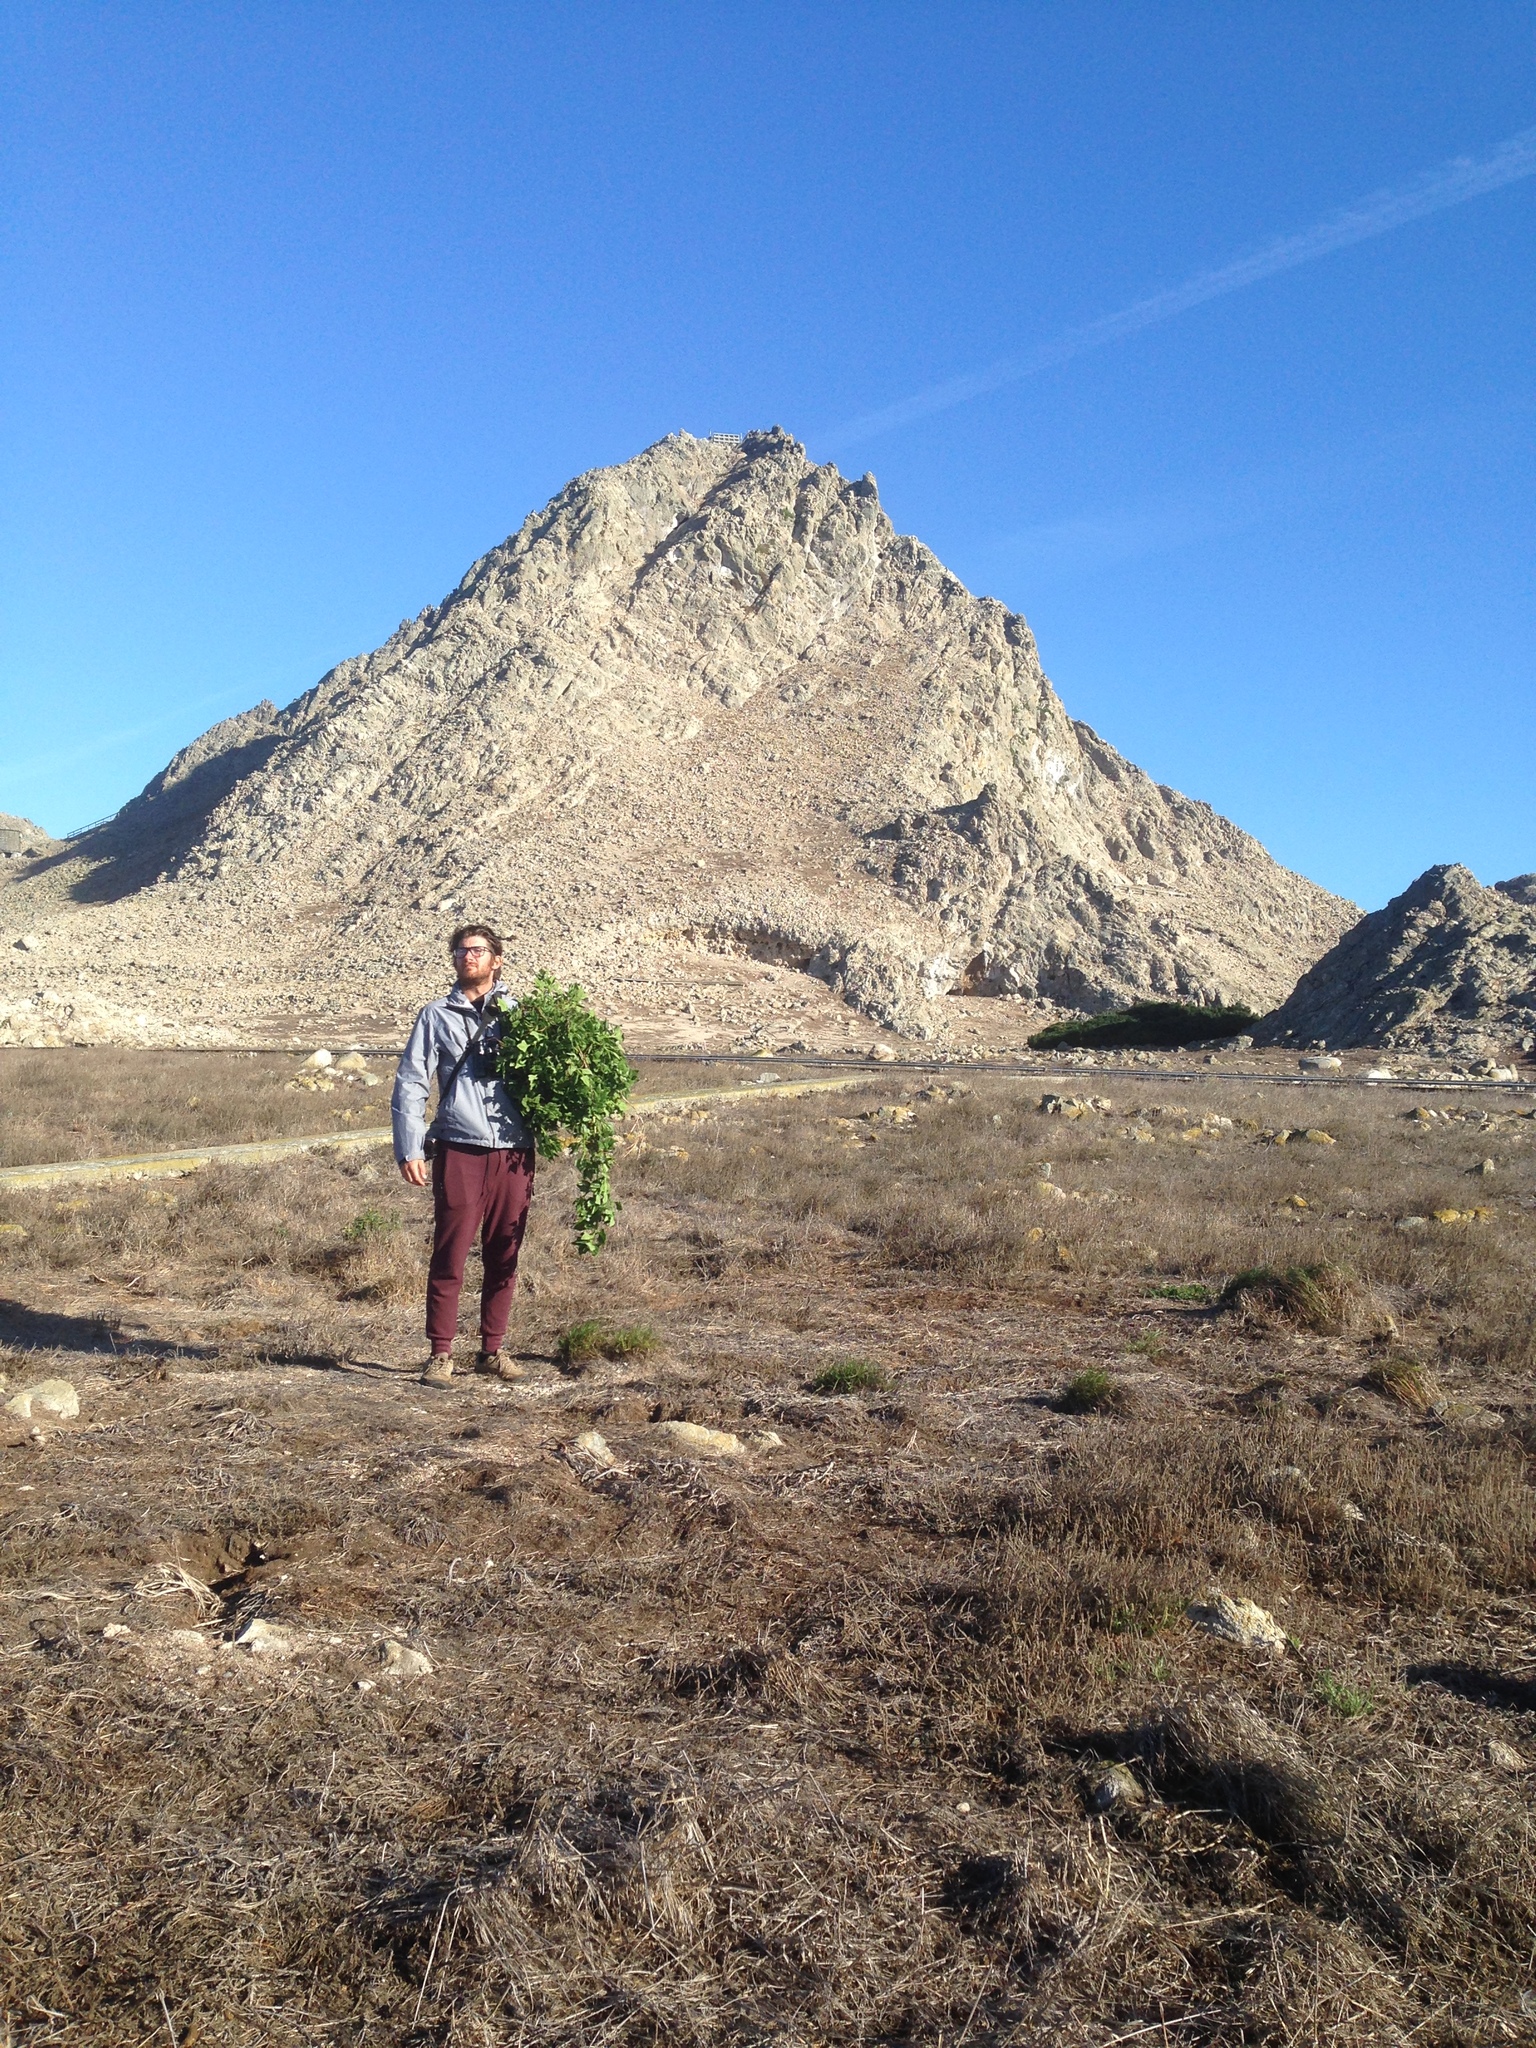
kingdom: Plantae
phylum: Tracheophyta
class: Magnoliopsida
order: Caryophyllales
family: Aizoaceae
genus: Tetragonia
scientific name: Tetragonia tetragonoides
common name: New zealand-spinach
